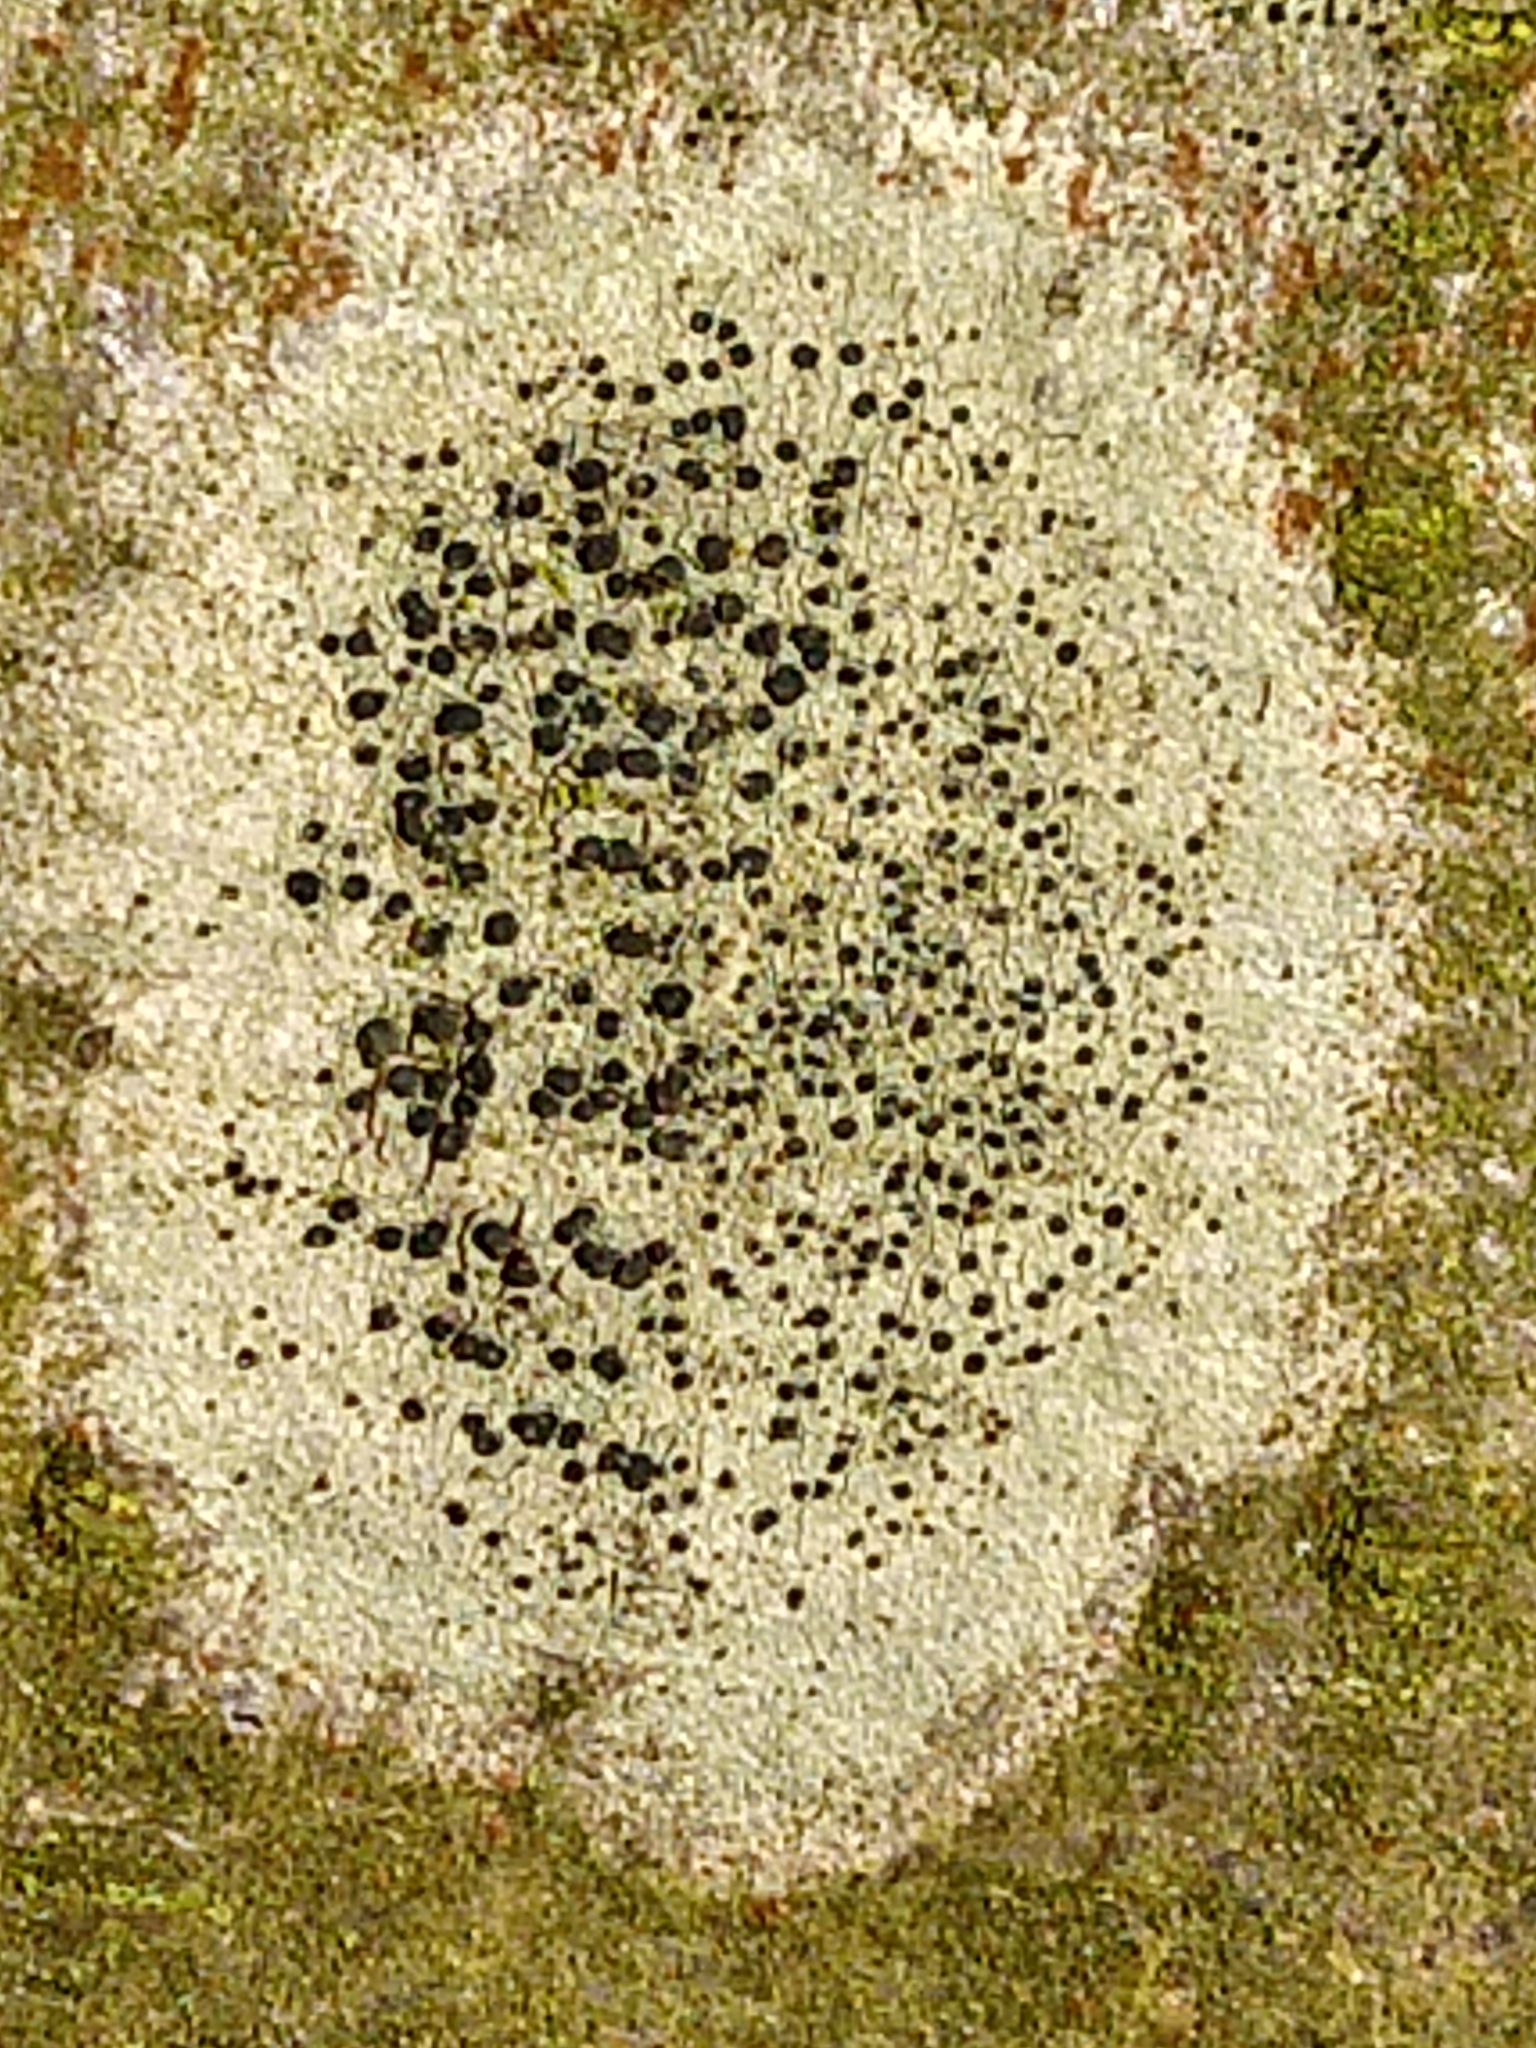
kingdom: Fungi
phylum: Ascomycota
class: Lecanoromycetes
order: Lecanorales
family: Lecanoraceae
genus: Lecidella
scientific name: Lecidella elaeochroma
